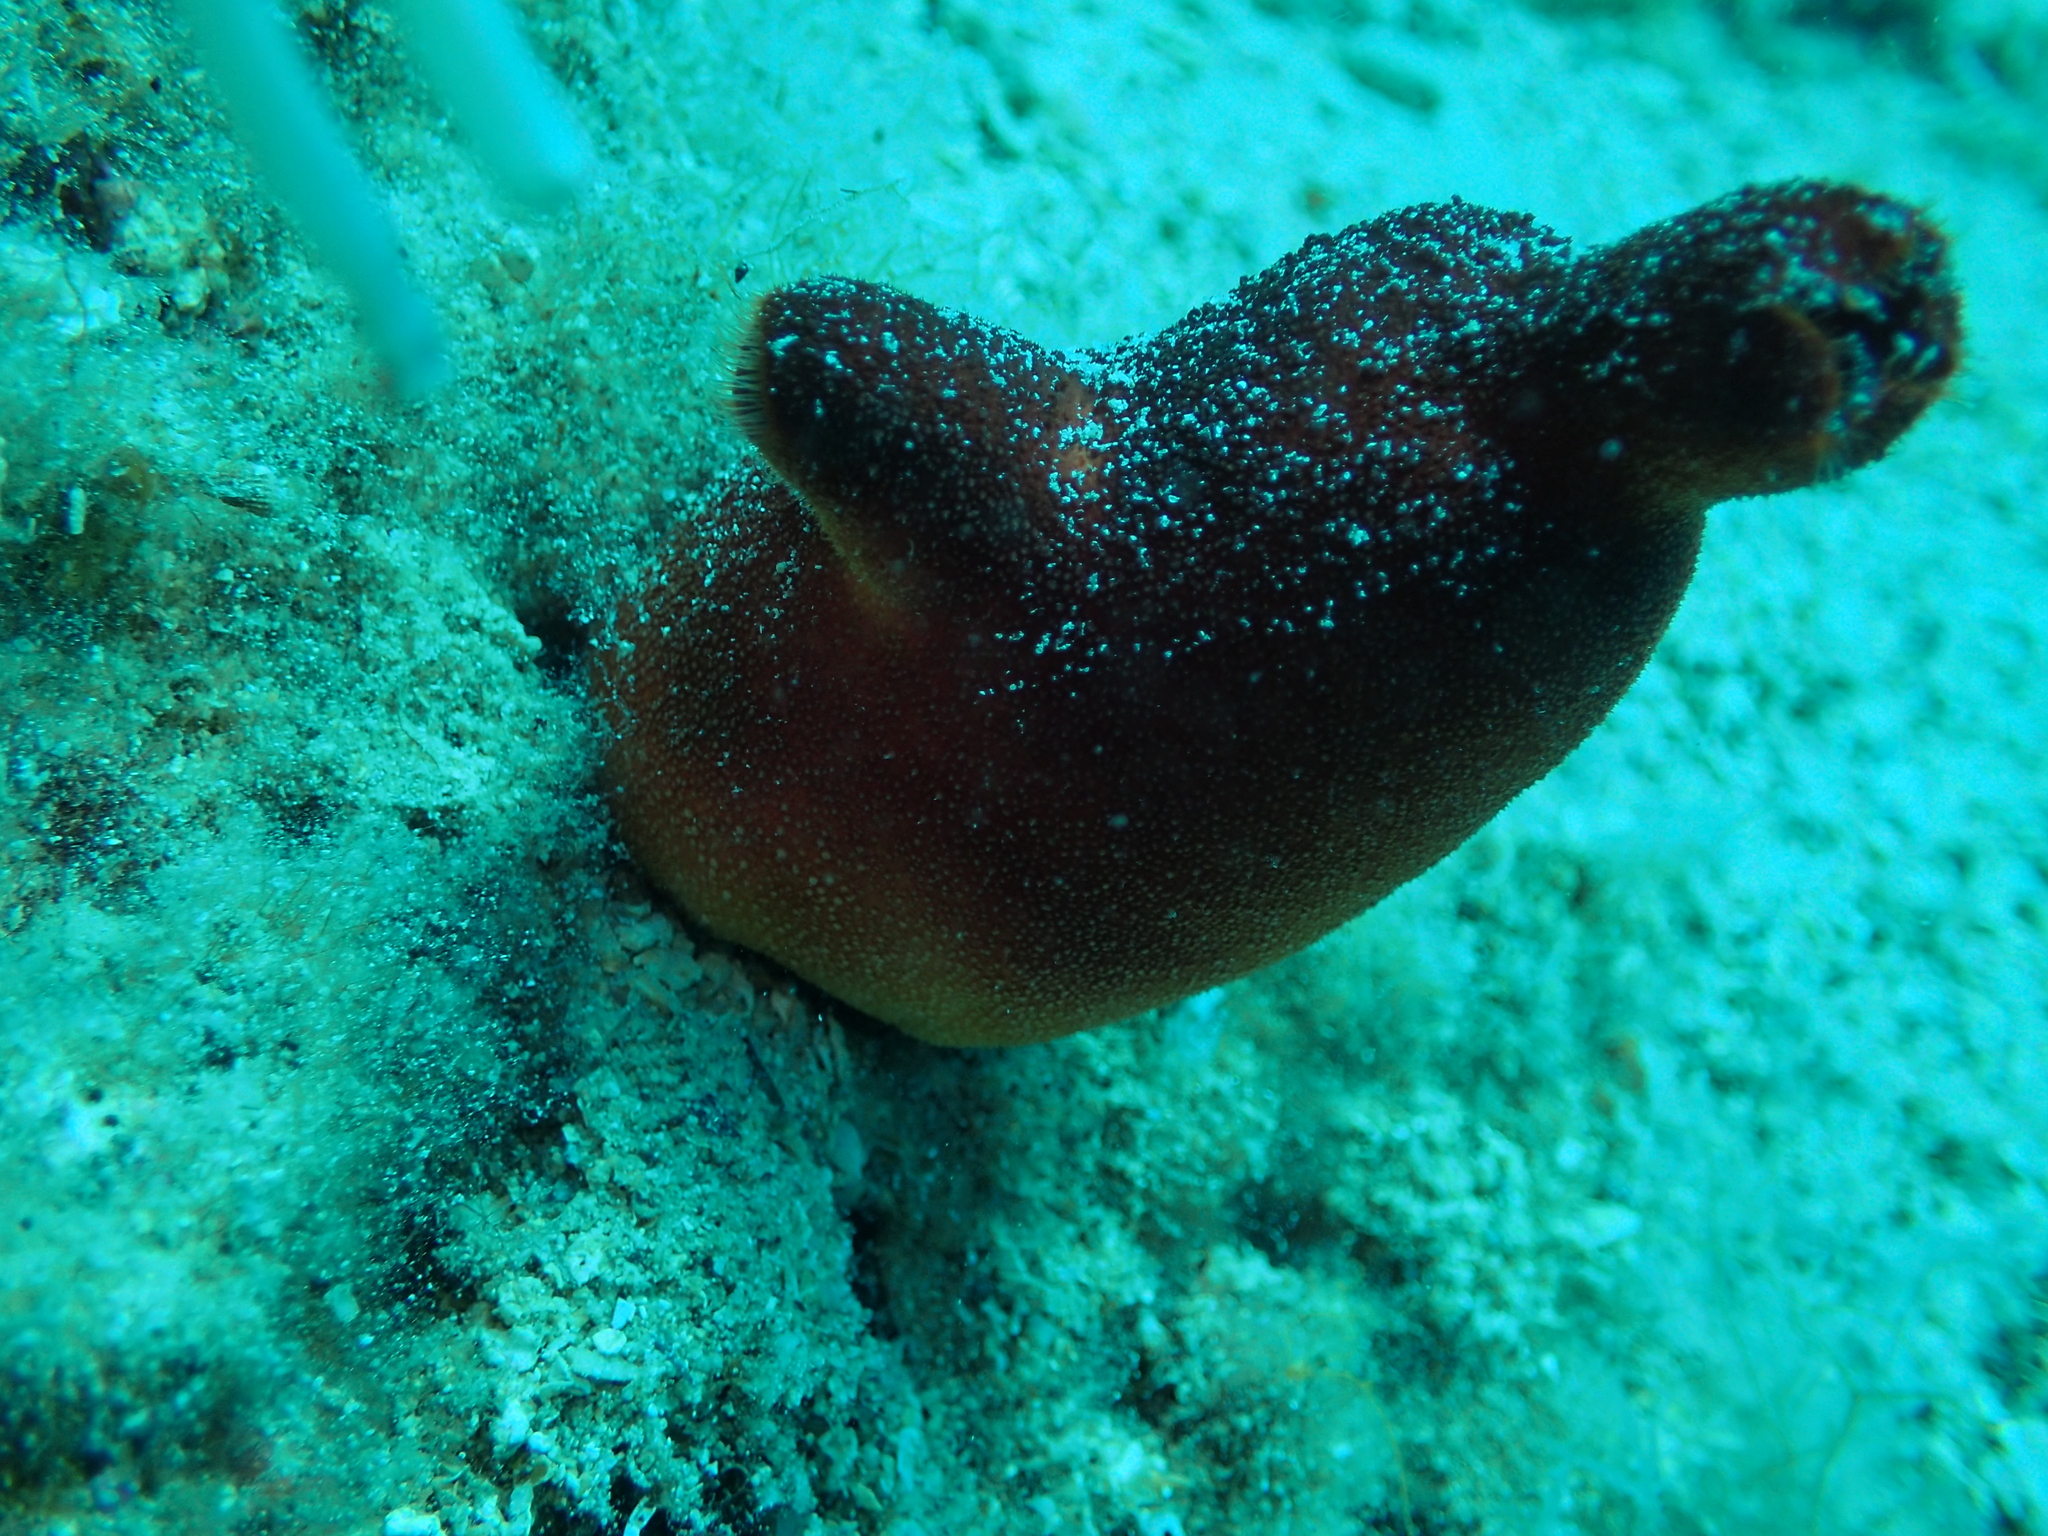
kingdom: Animalia
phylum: Chordata
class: Ascidiacea
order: Stolidobranchia
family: Pyuridae
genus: Halocynthia
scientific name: Halocynthia papillosa
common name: Red sea-squirt
